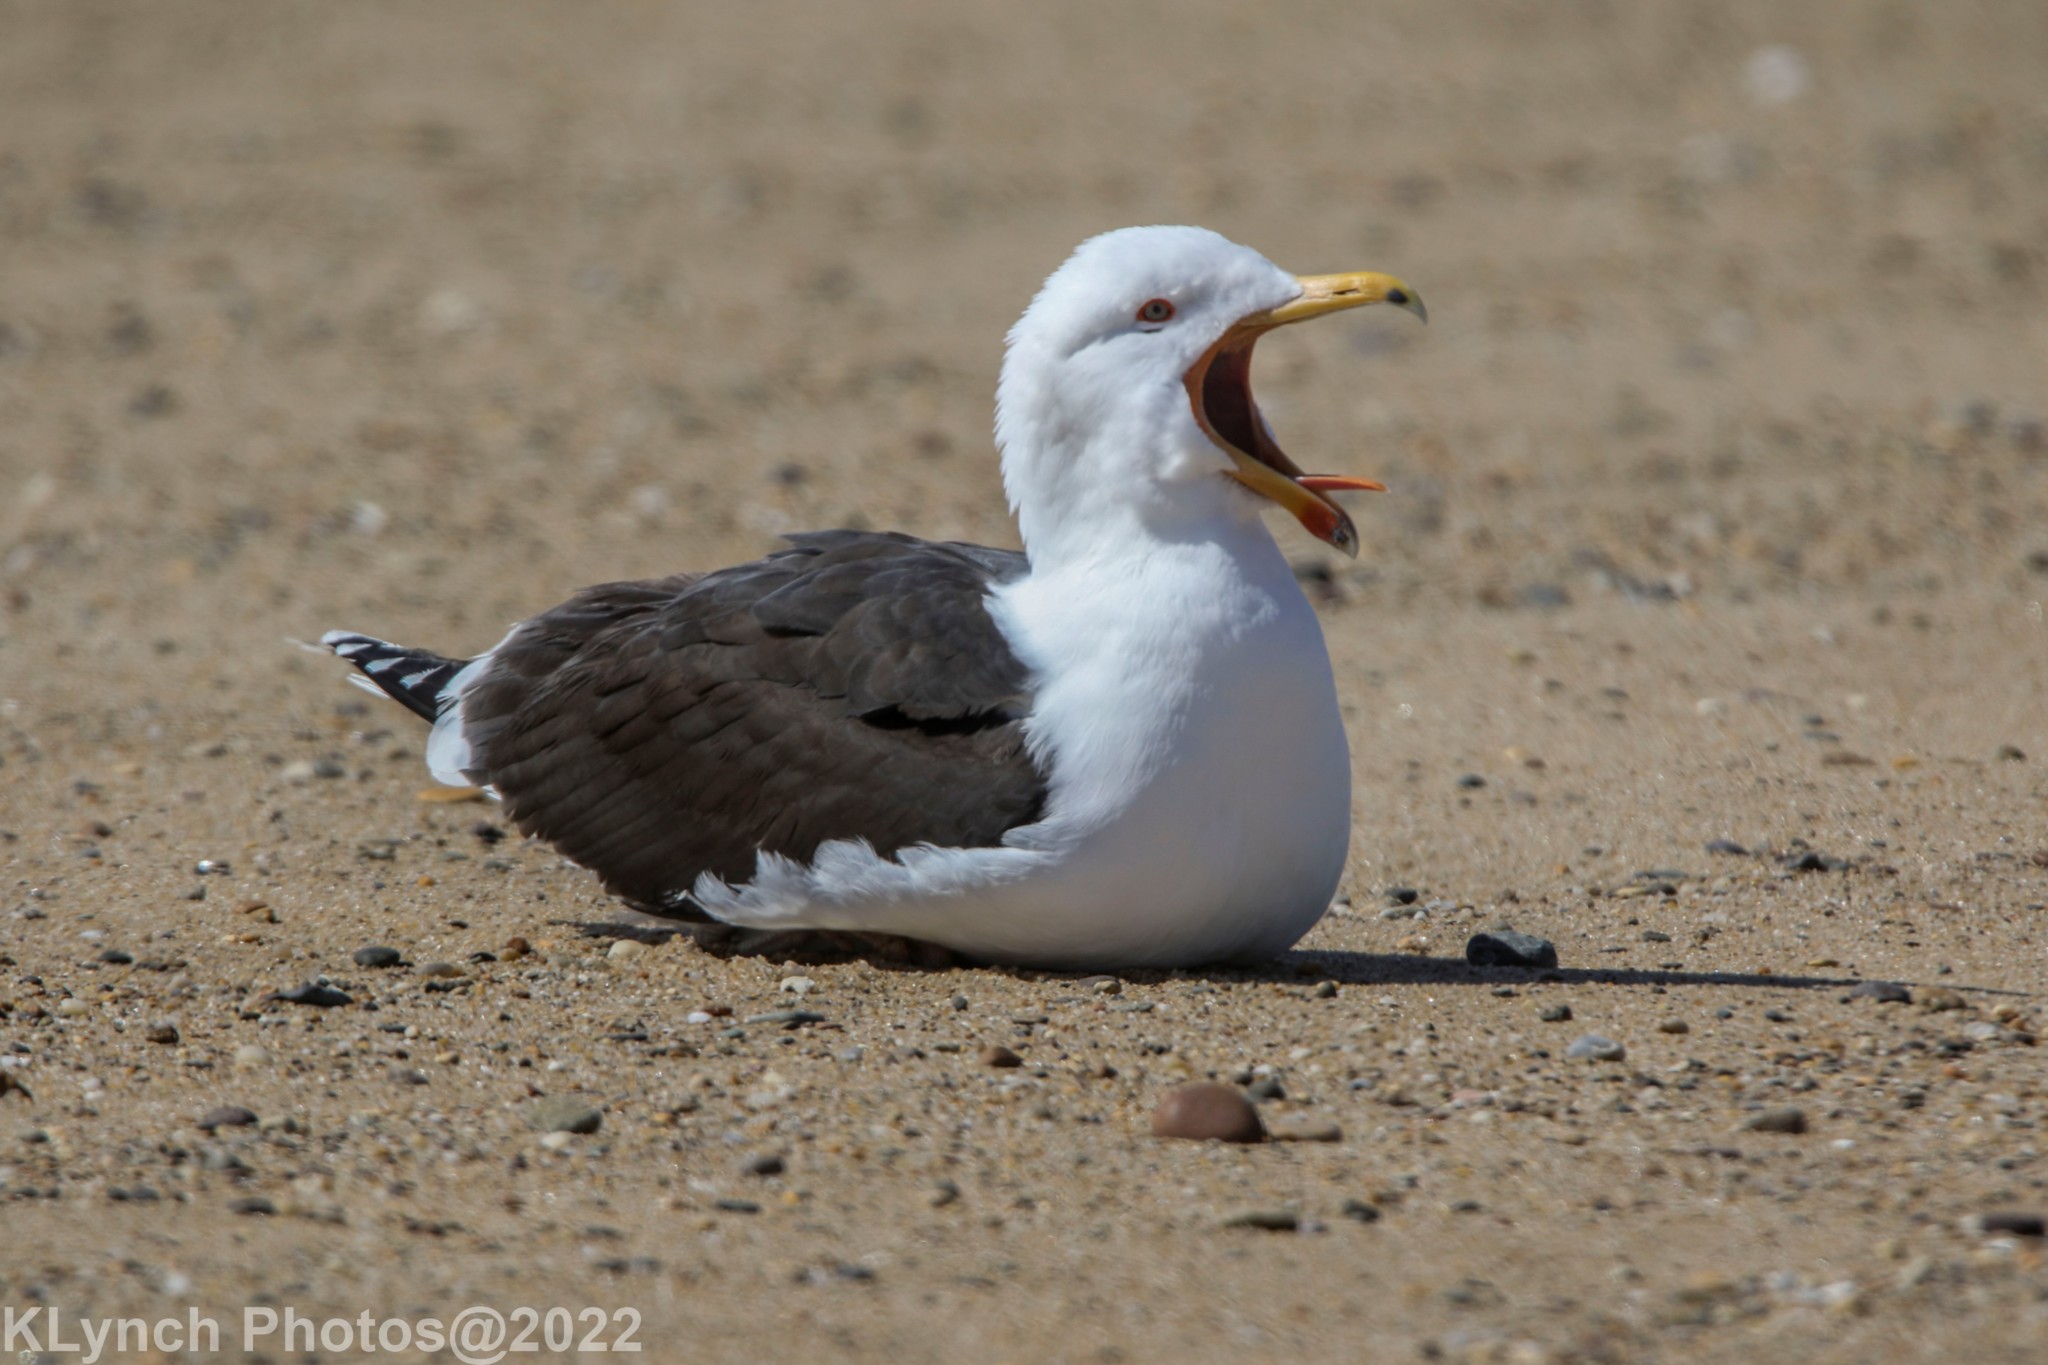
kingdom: Animalia
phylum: Chordata
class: Aves
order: Charadriiformes
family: Laridae
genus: Larus
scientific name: Larus marinus
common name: Great black-backed gull
